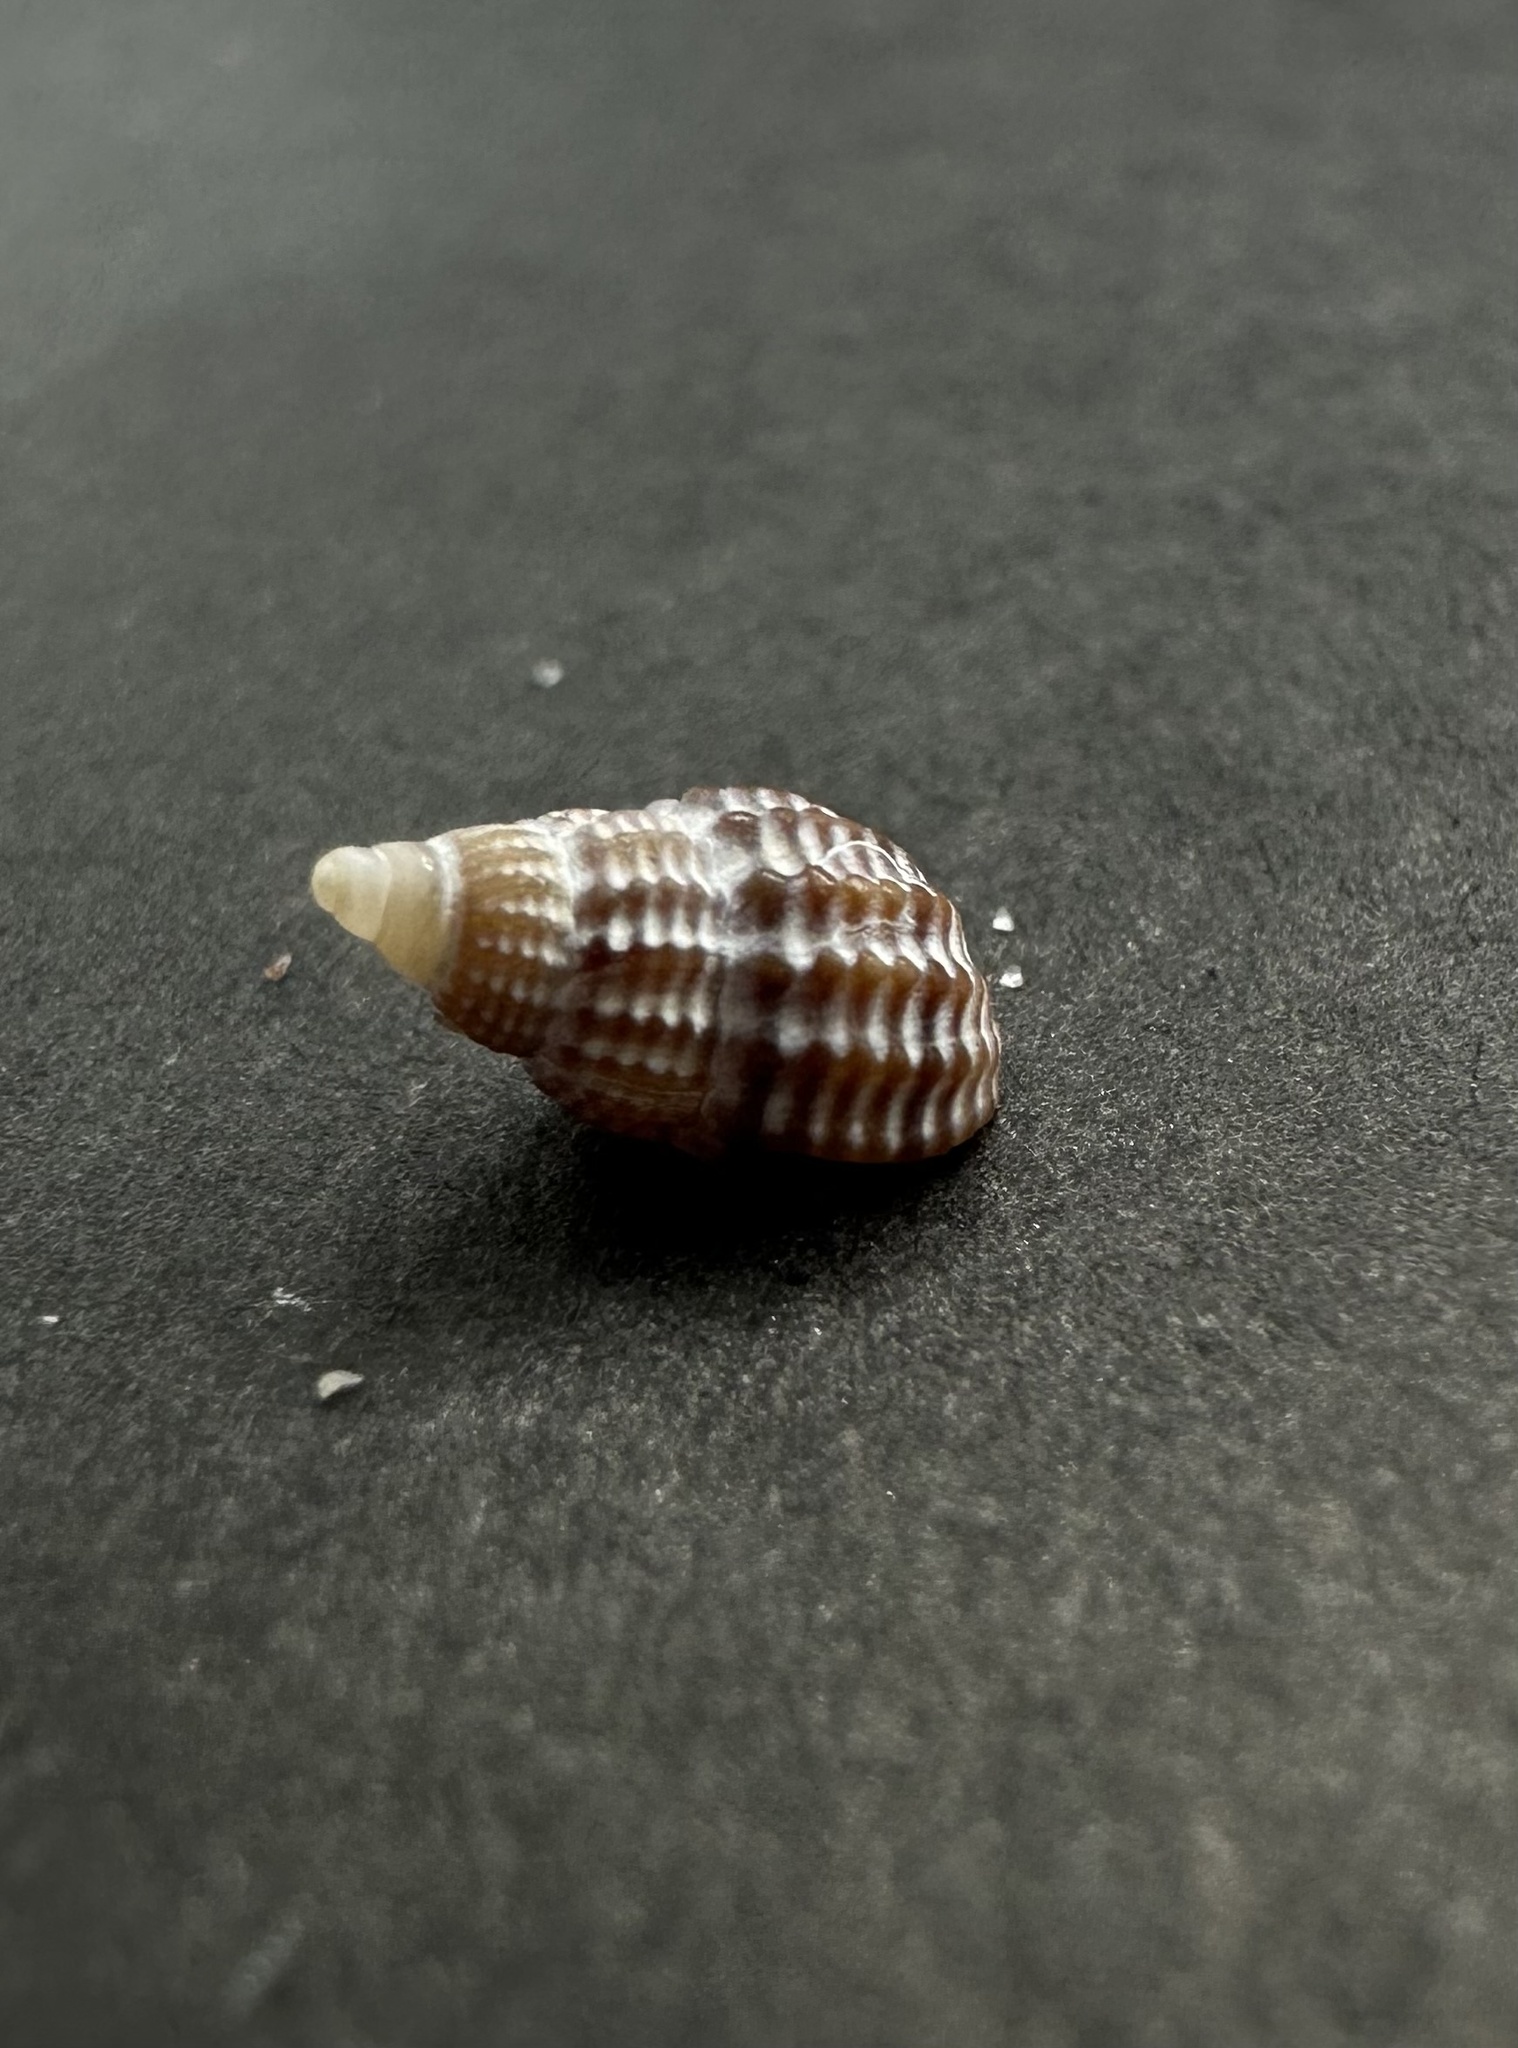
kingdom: Animalia
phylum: Mollusca
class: Gastropoda
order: Neogastropoda
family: Nassariidae
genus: Ilyanassa
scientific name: Ilyanassa trivittata
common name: Three-line mudsnail
